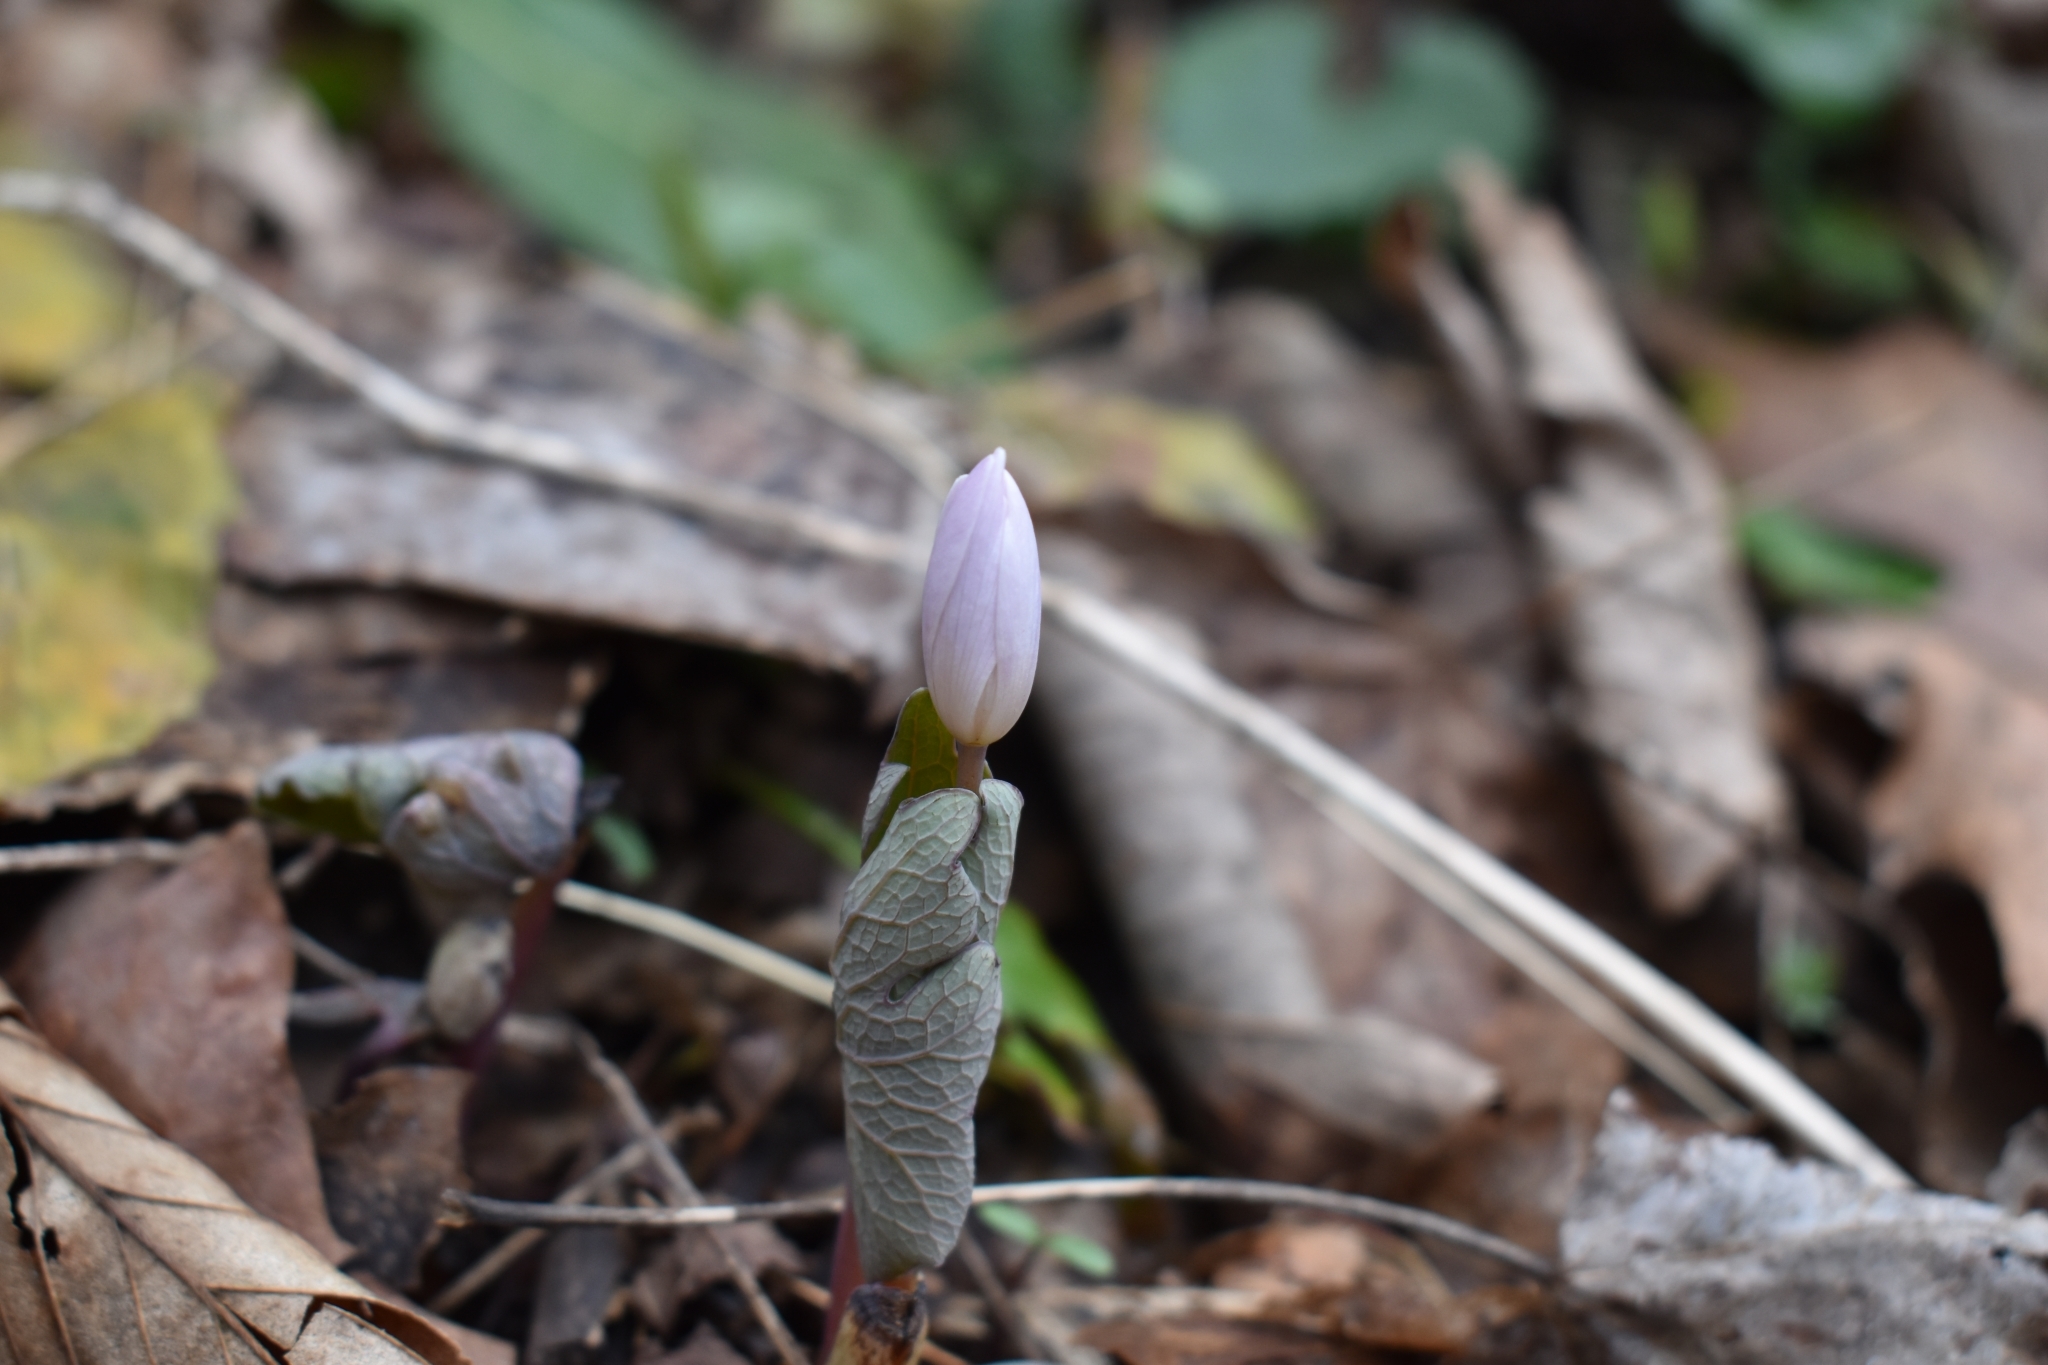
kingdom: Plantae
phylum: Tracheophyta
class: Magnoliopsida
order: Ranunculales
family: Papaveraceae
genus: Sanguinaria
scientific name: Sanguinaria canadensis
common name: Bloodroot
